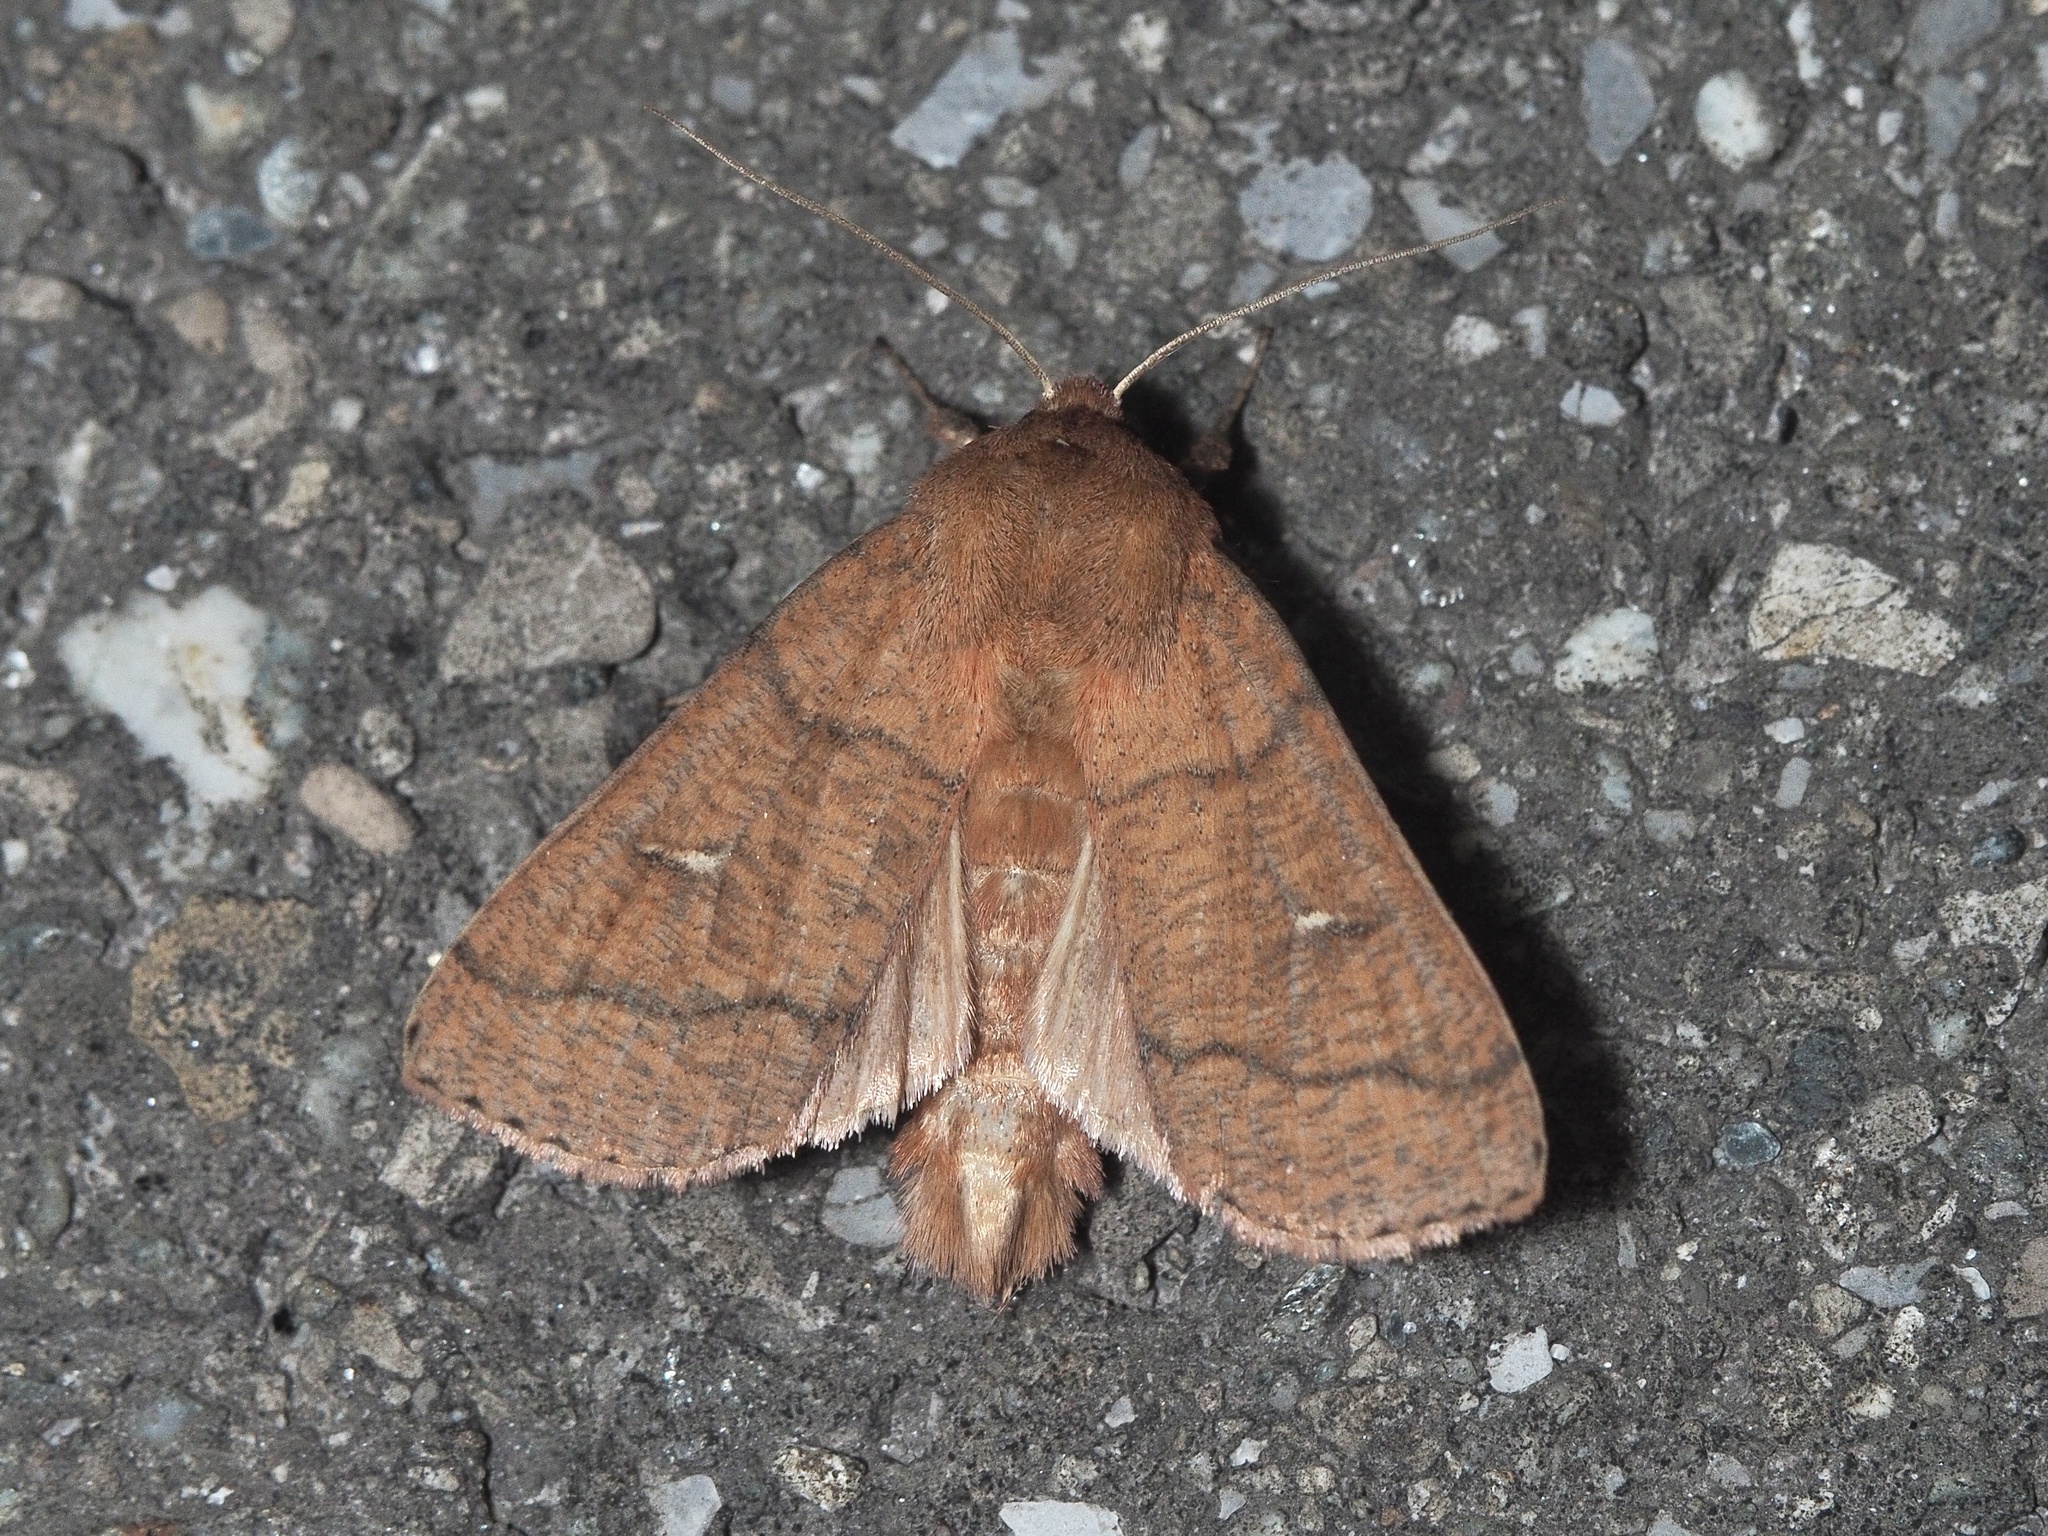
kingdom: Animalia
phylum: Arthropoda
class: Insecta
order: Lepidoptera
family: Noctuidae
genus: Mythimna
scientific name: Mythimna turca
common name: Double line
